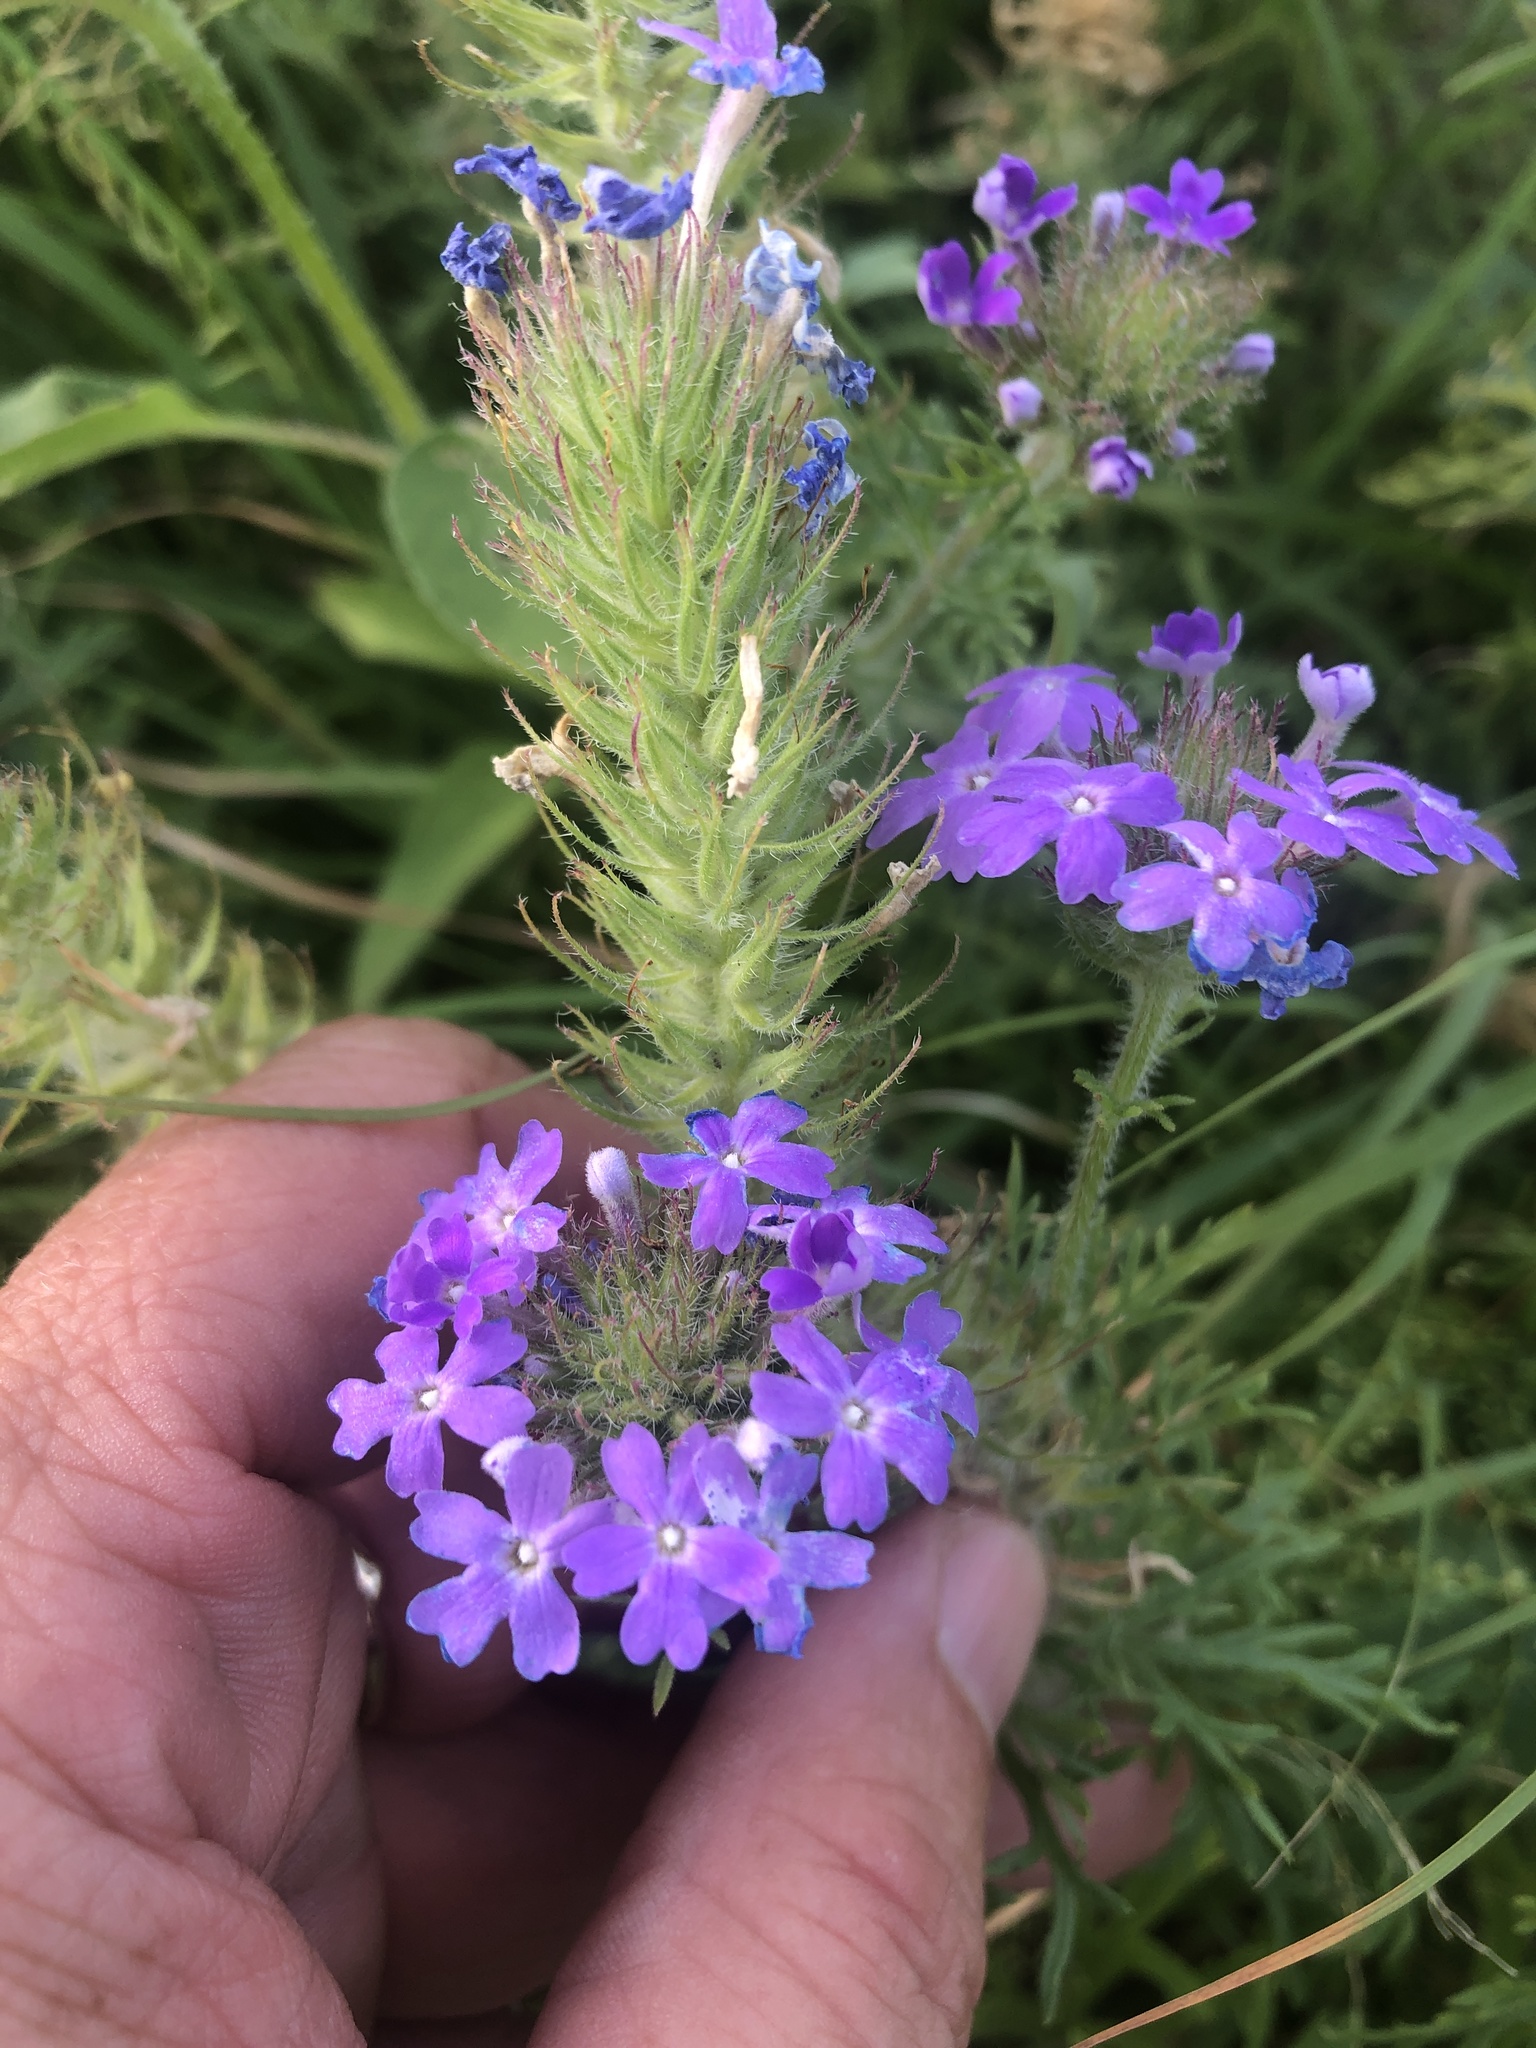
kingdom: Plantae
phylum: Tracheophyta
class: Magnoliopsida
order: Lamiales
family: Verbenaceae
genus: Verbena
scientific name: Verbena bipinnatifida
